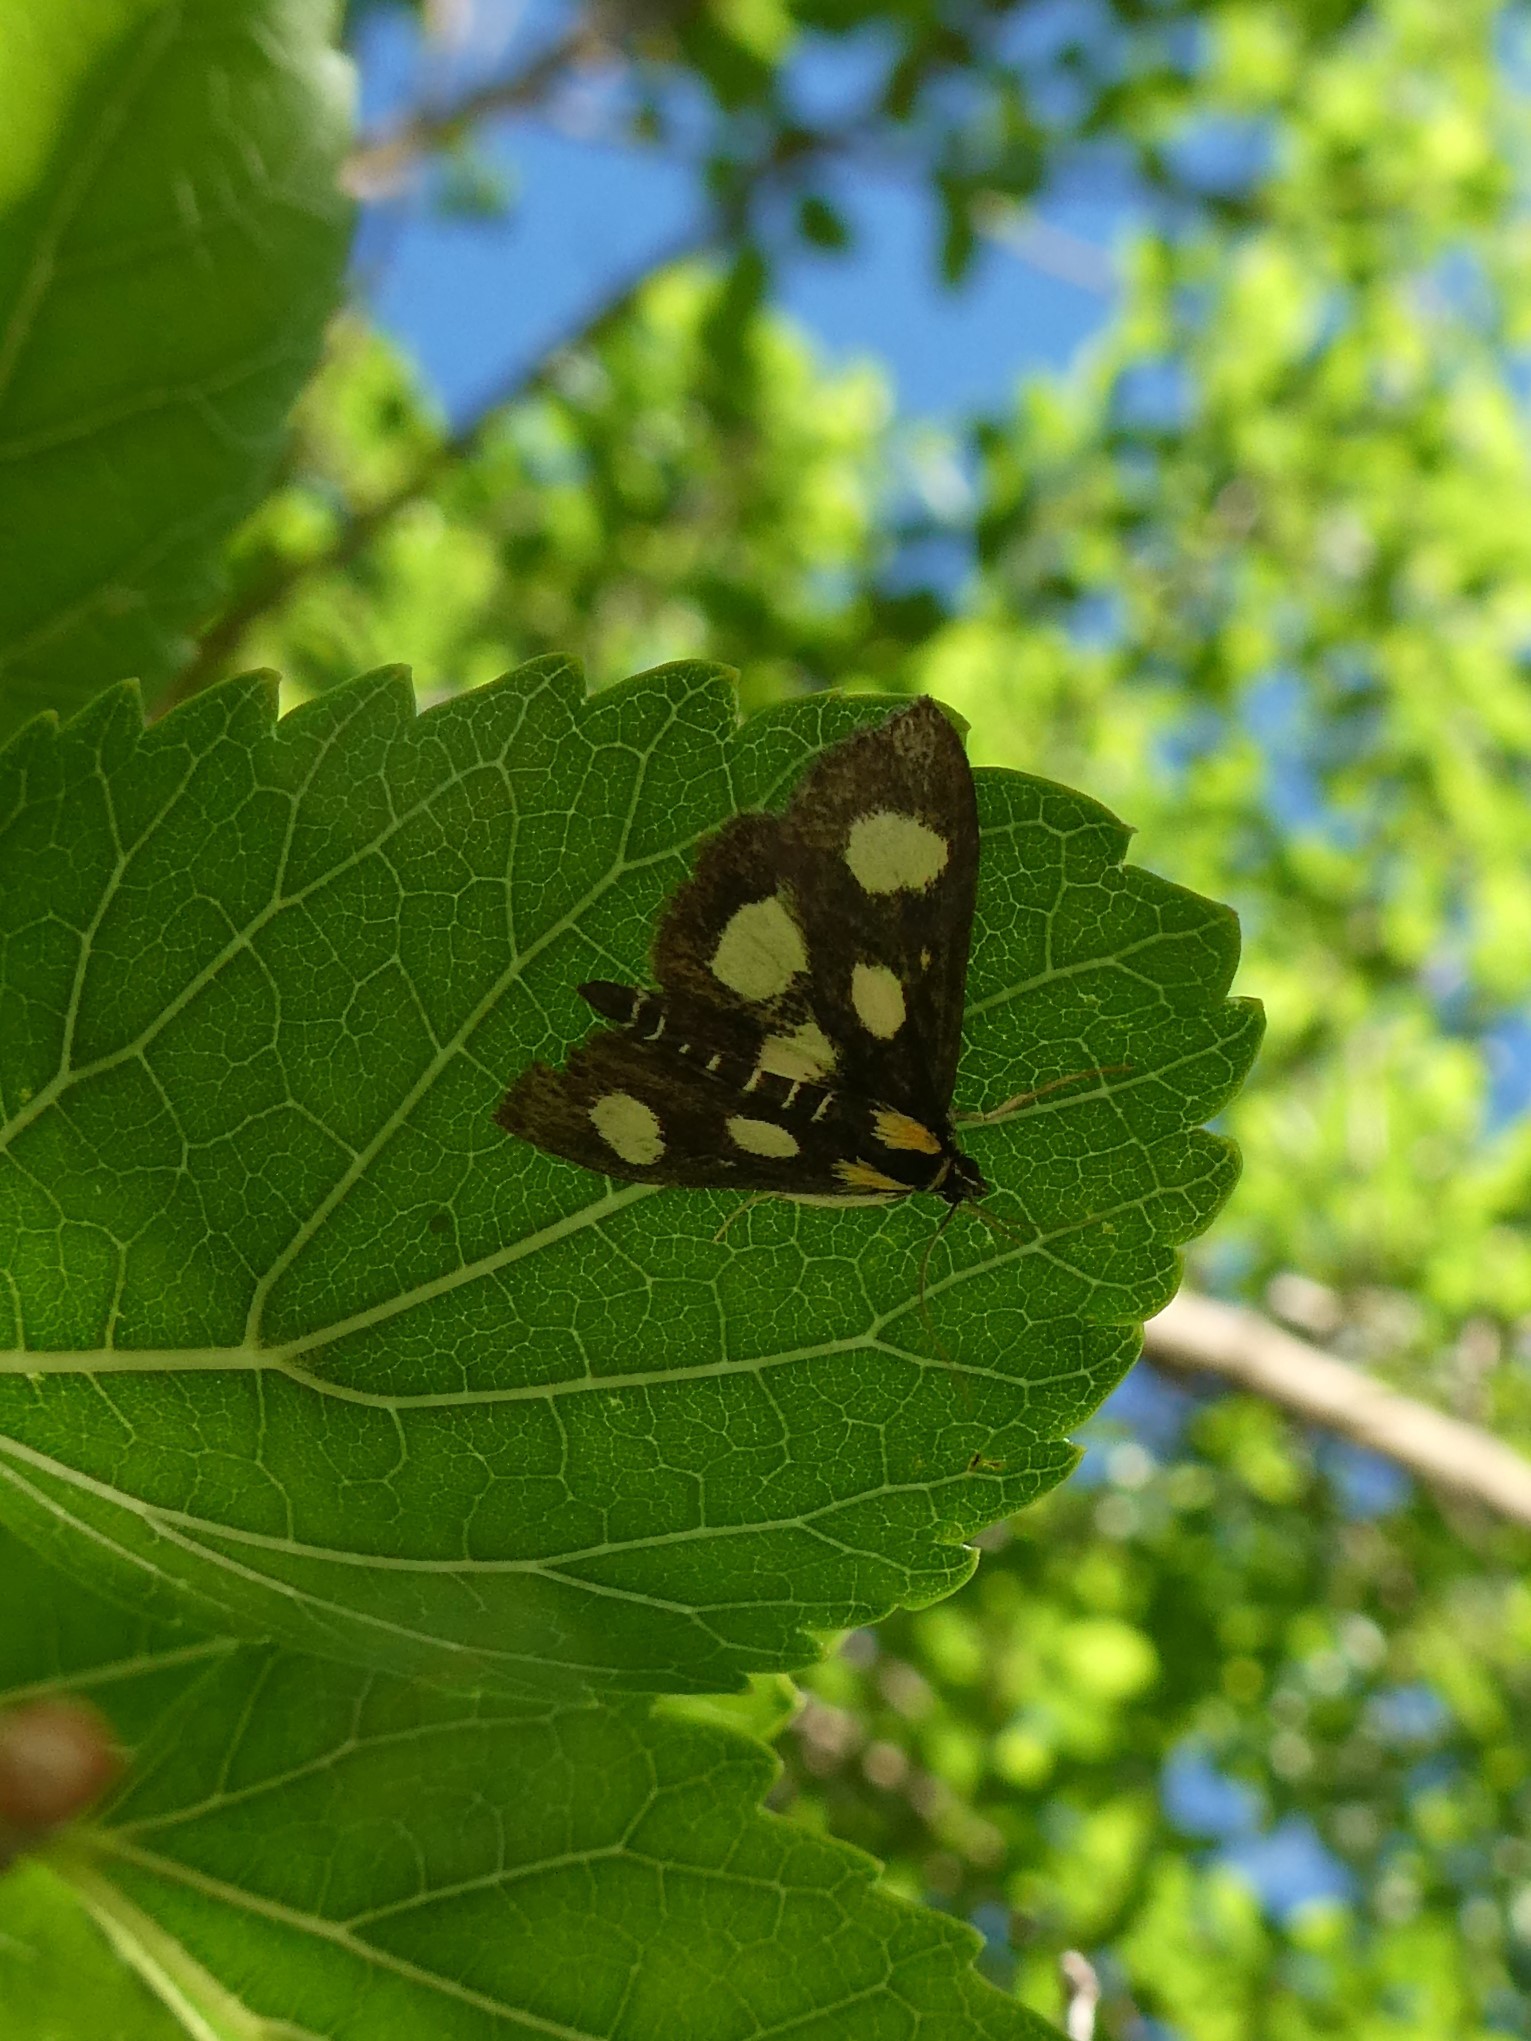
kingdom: Animalia
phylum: Arthropoda
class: Insecta
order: Lepidoptera
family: Crambidae
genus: Anania
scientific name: Anania funebris
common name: White-spotted sable moth
